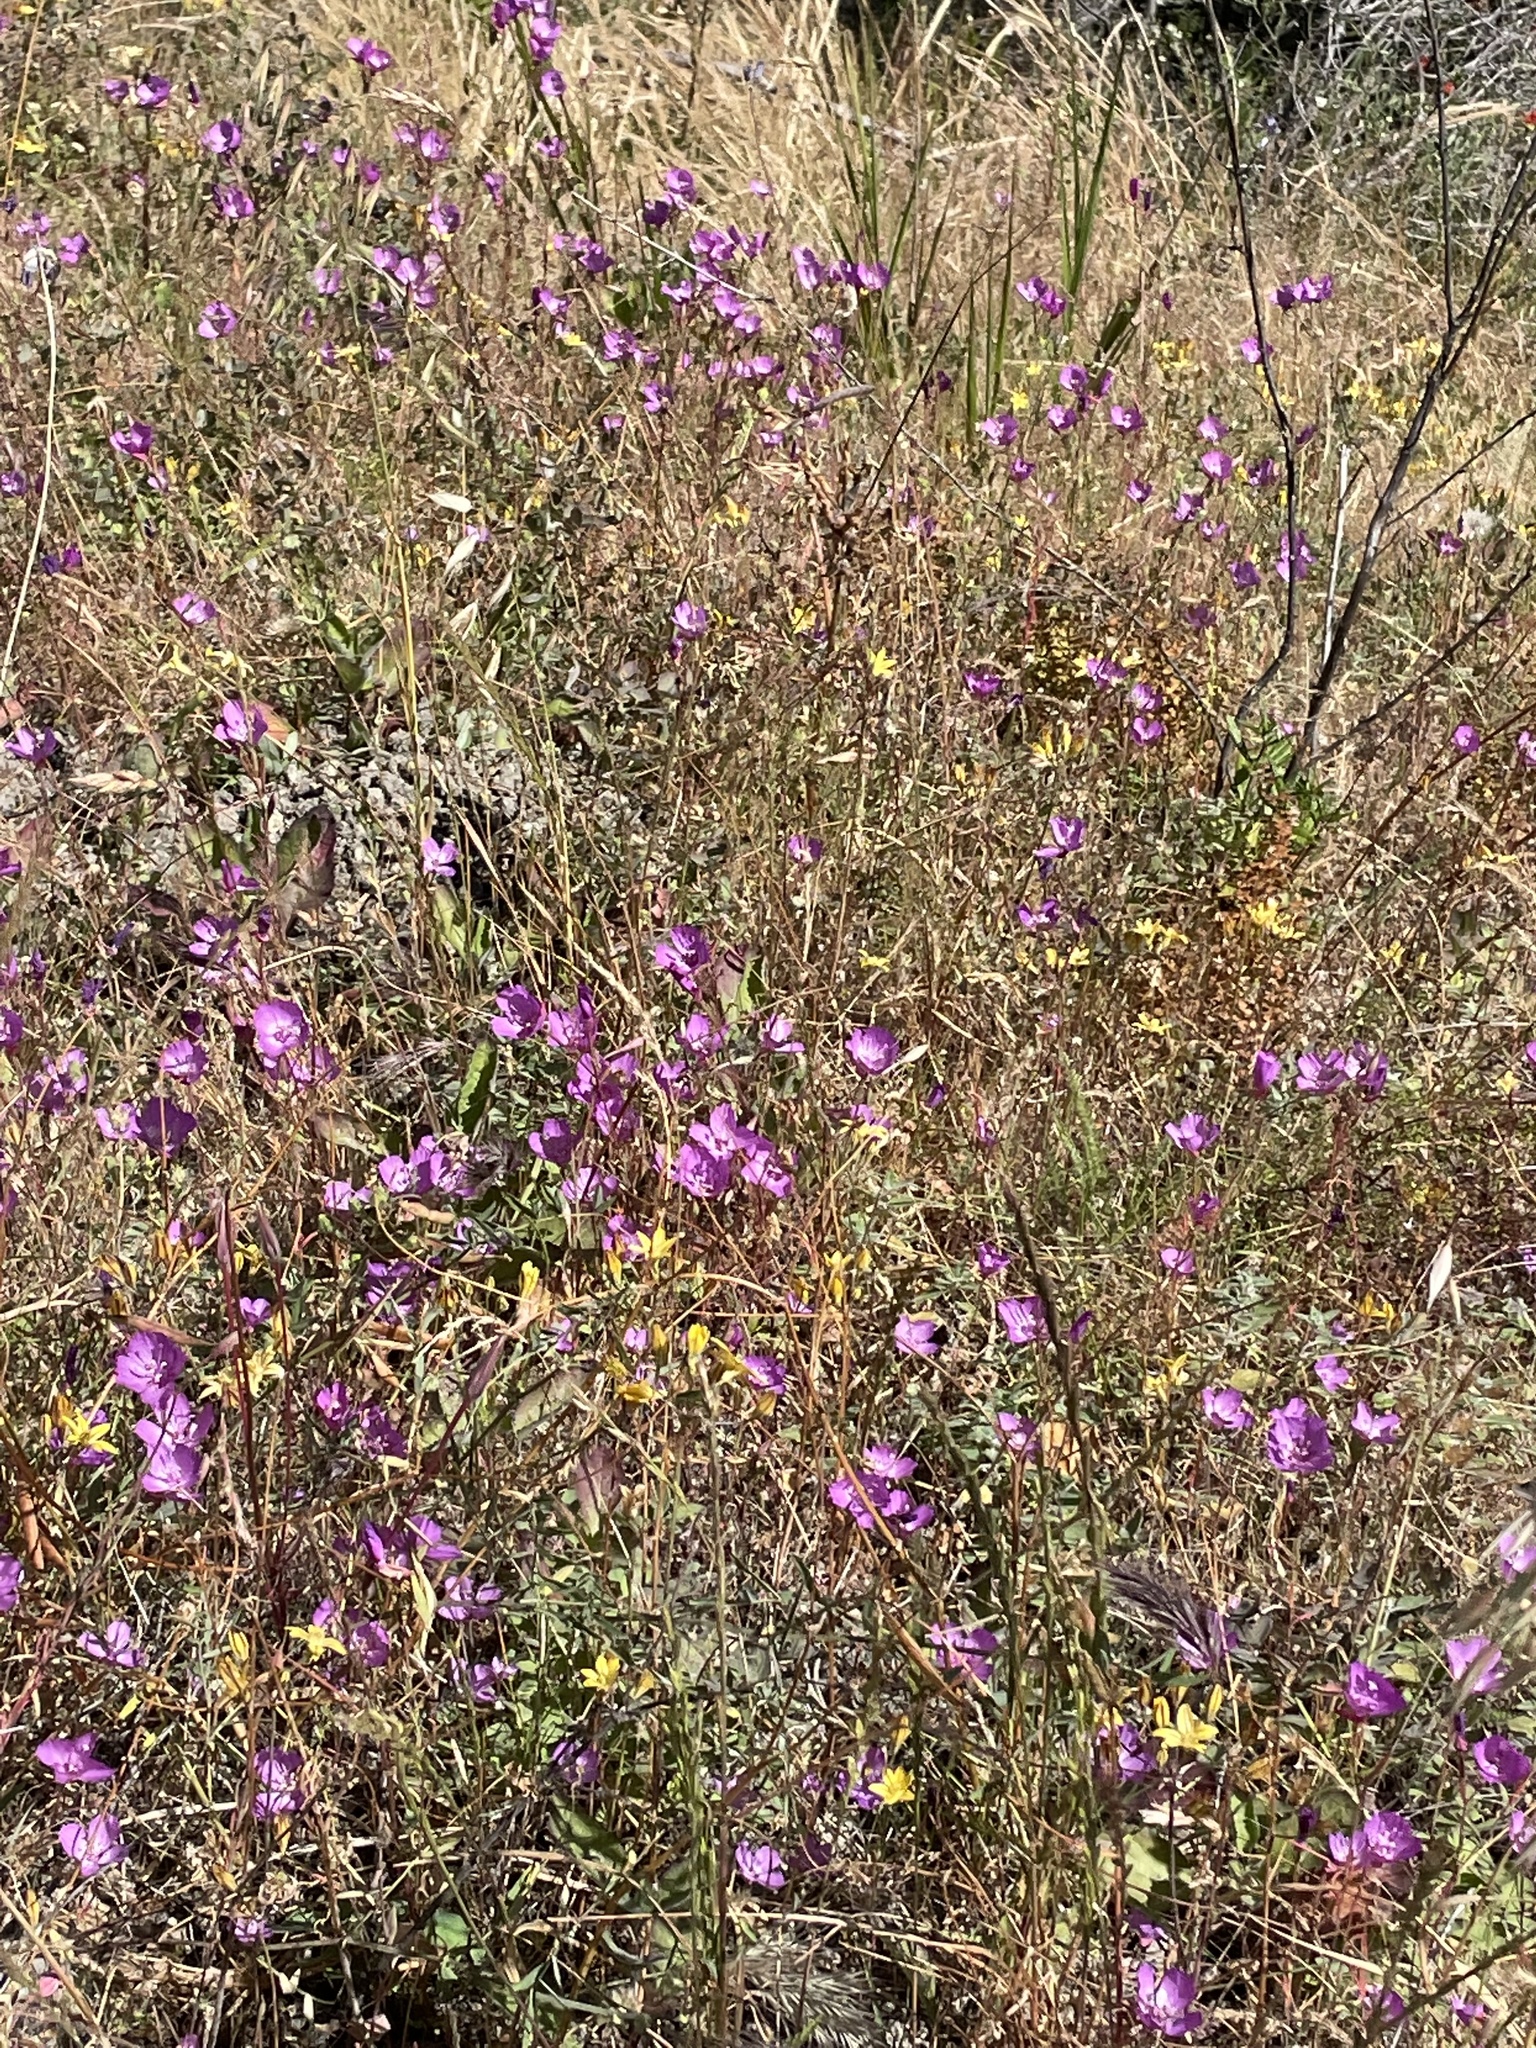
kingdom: Plantae
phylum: Tracheophyta
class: Magnoliopsida
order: Myrtales
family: Onagraceae
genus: Clarkia
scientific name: Clarkia lewisii
